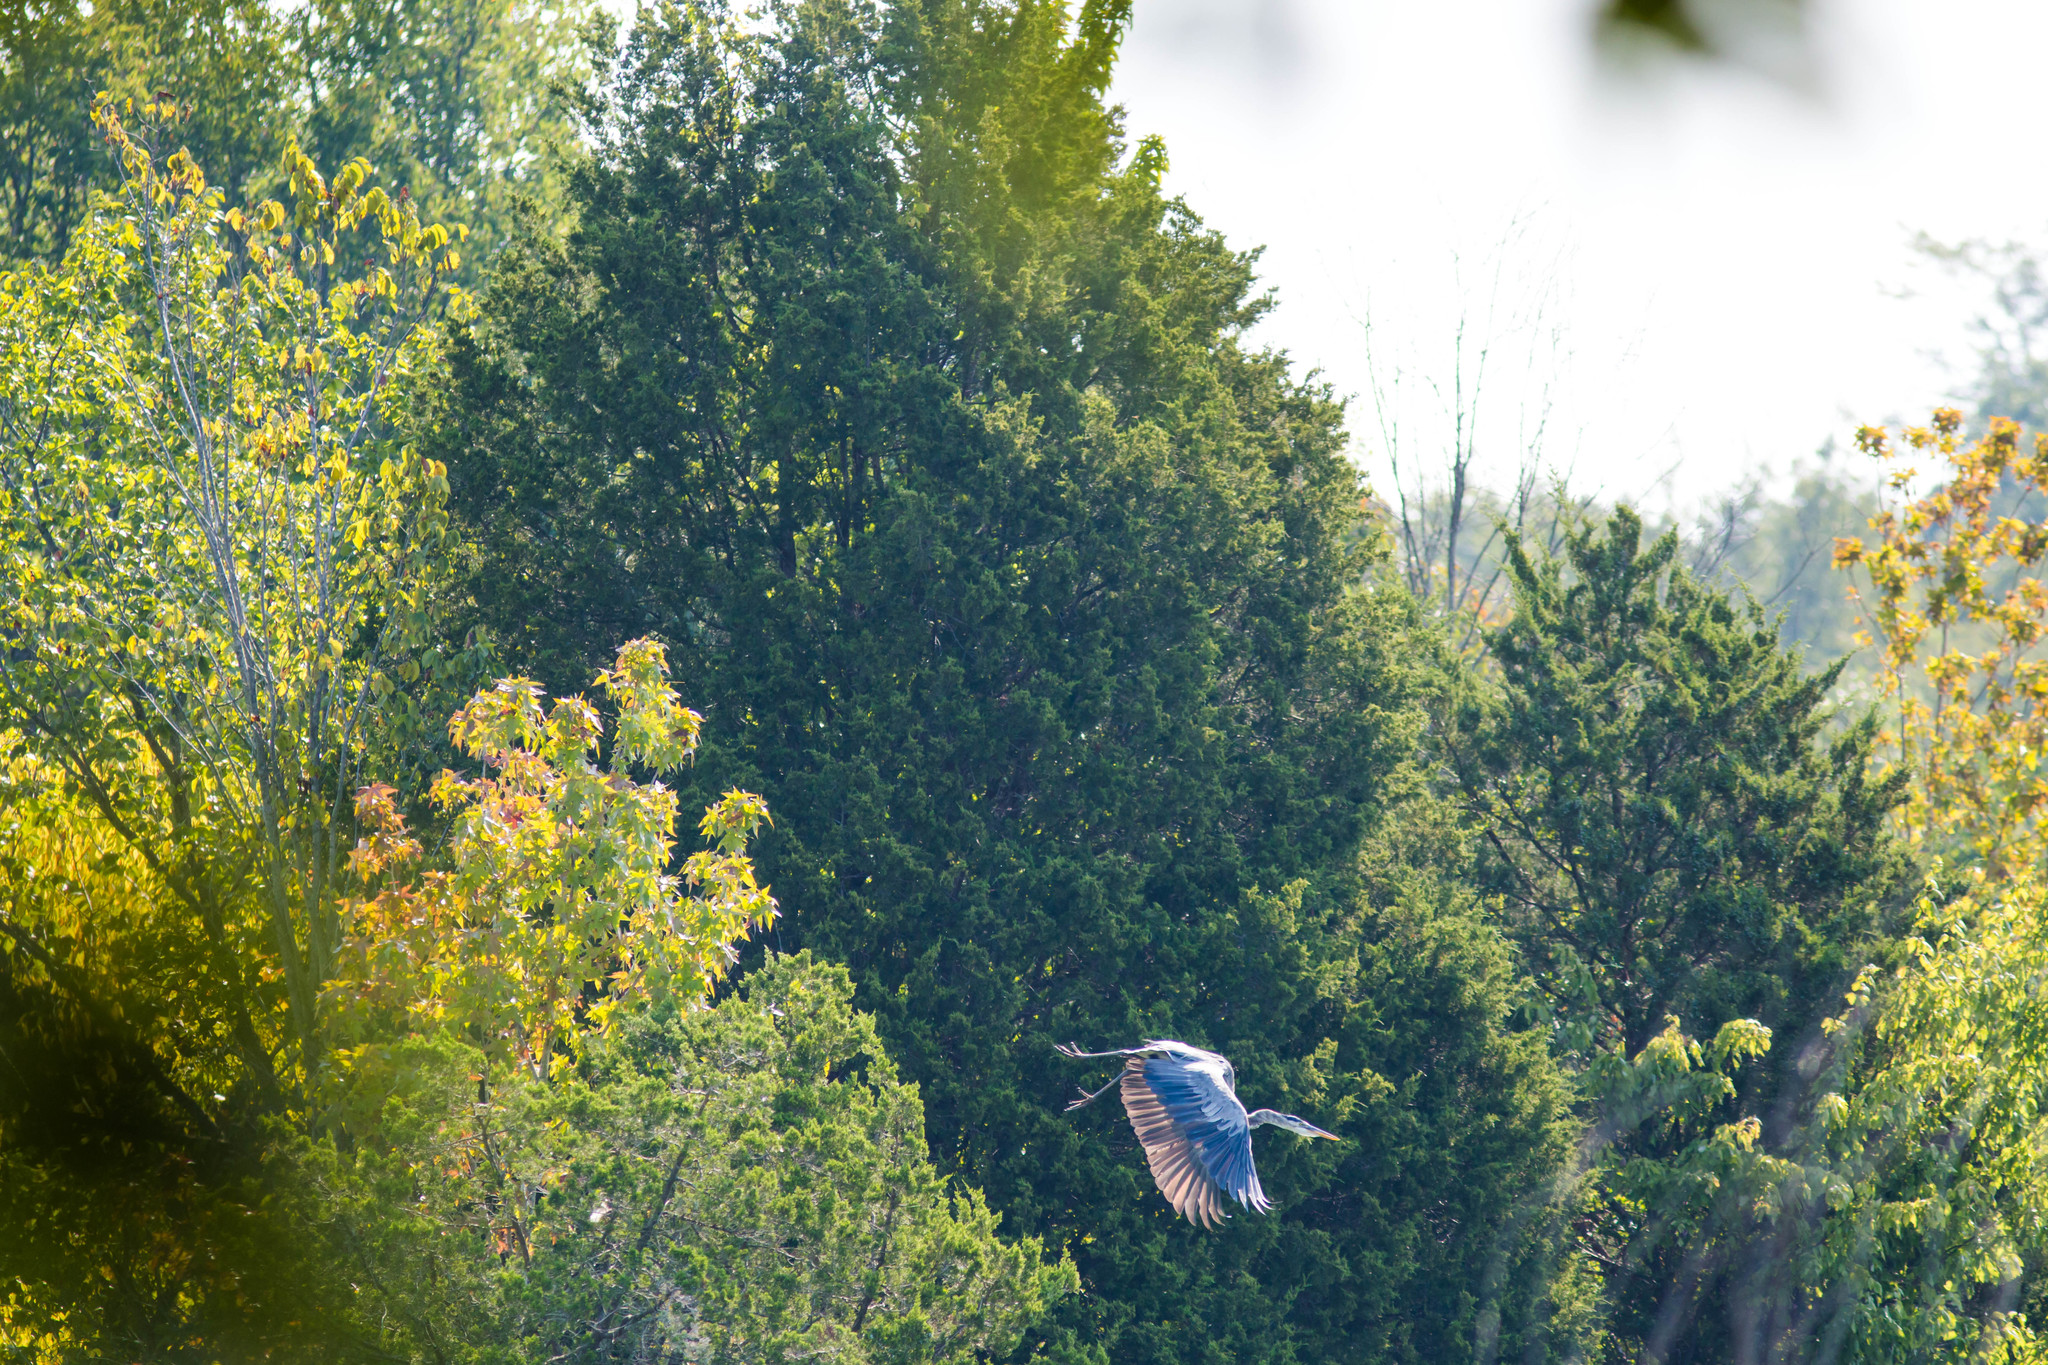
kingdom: Animalia
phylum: Chordata
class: Aves
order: Pelecaniformes
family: Ardeidae
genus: Ardea
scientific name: Ardea herodias
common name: Great blue heron
